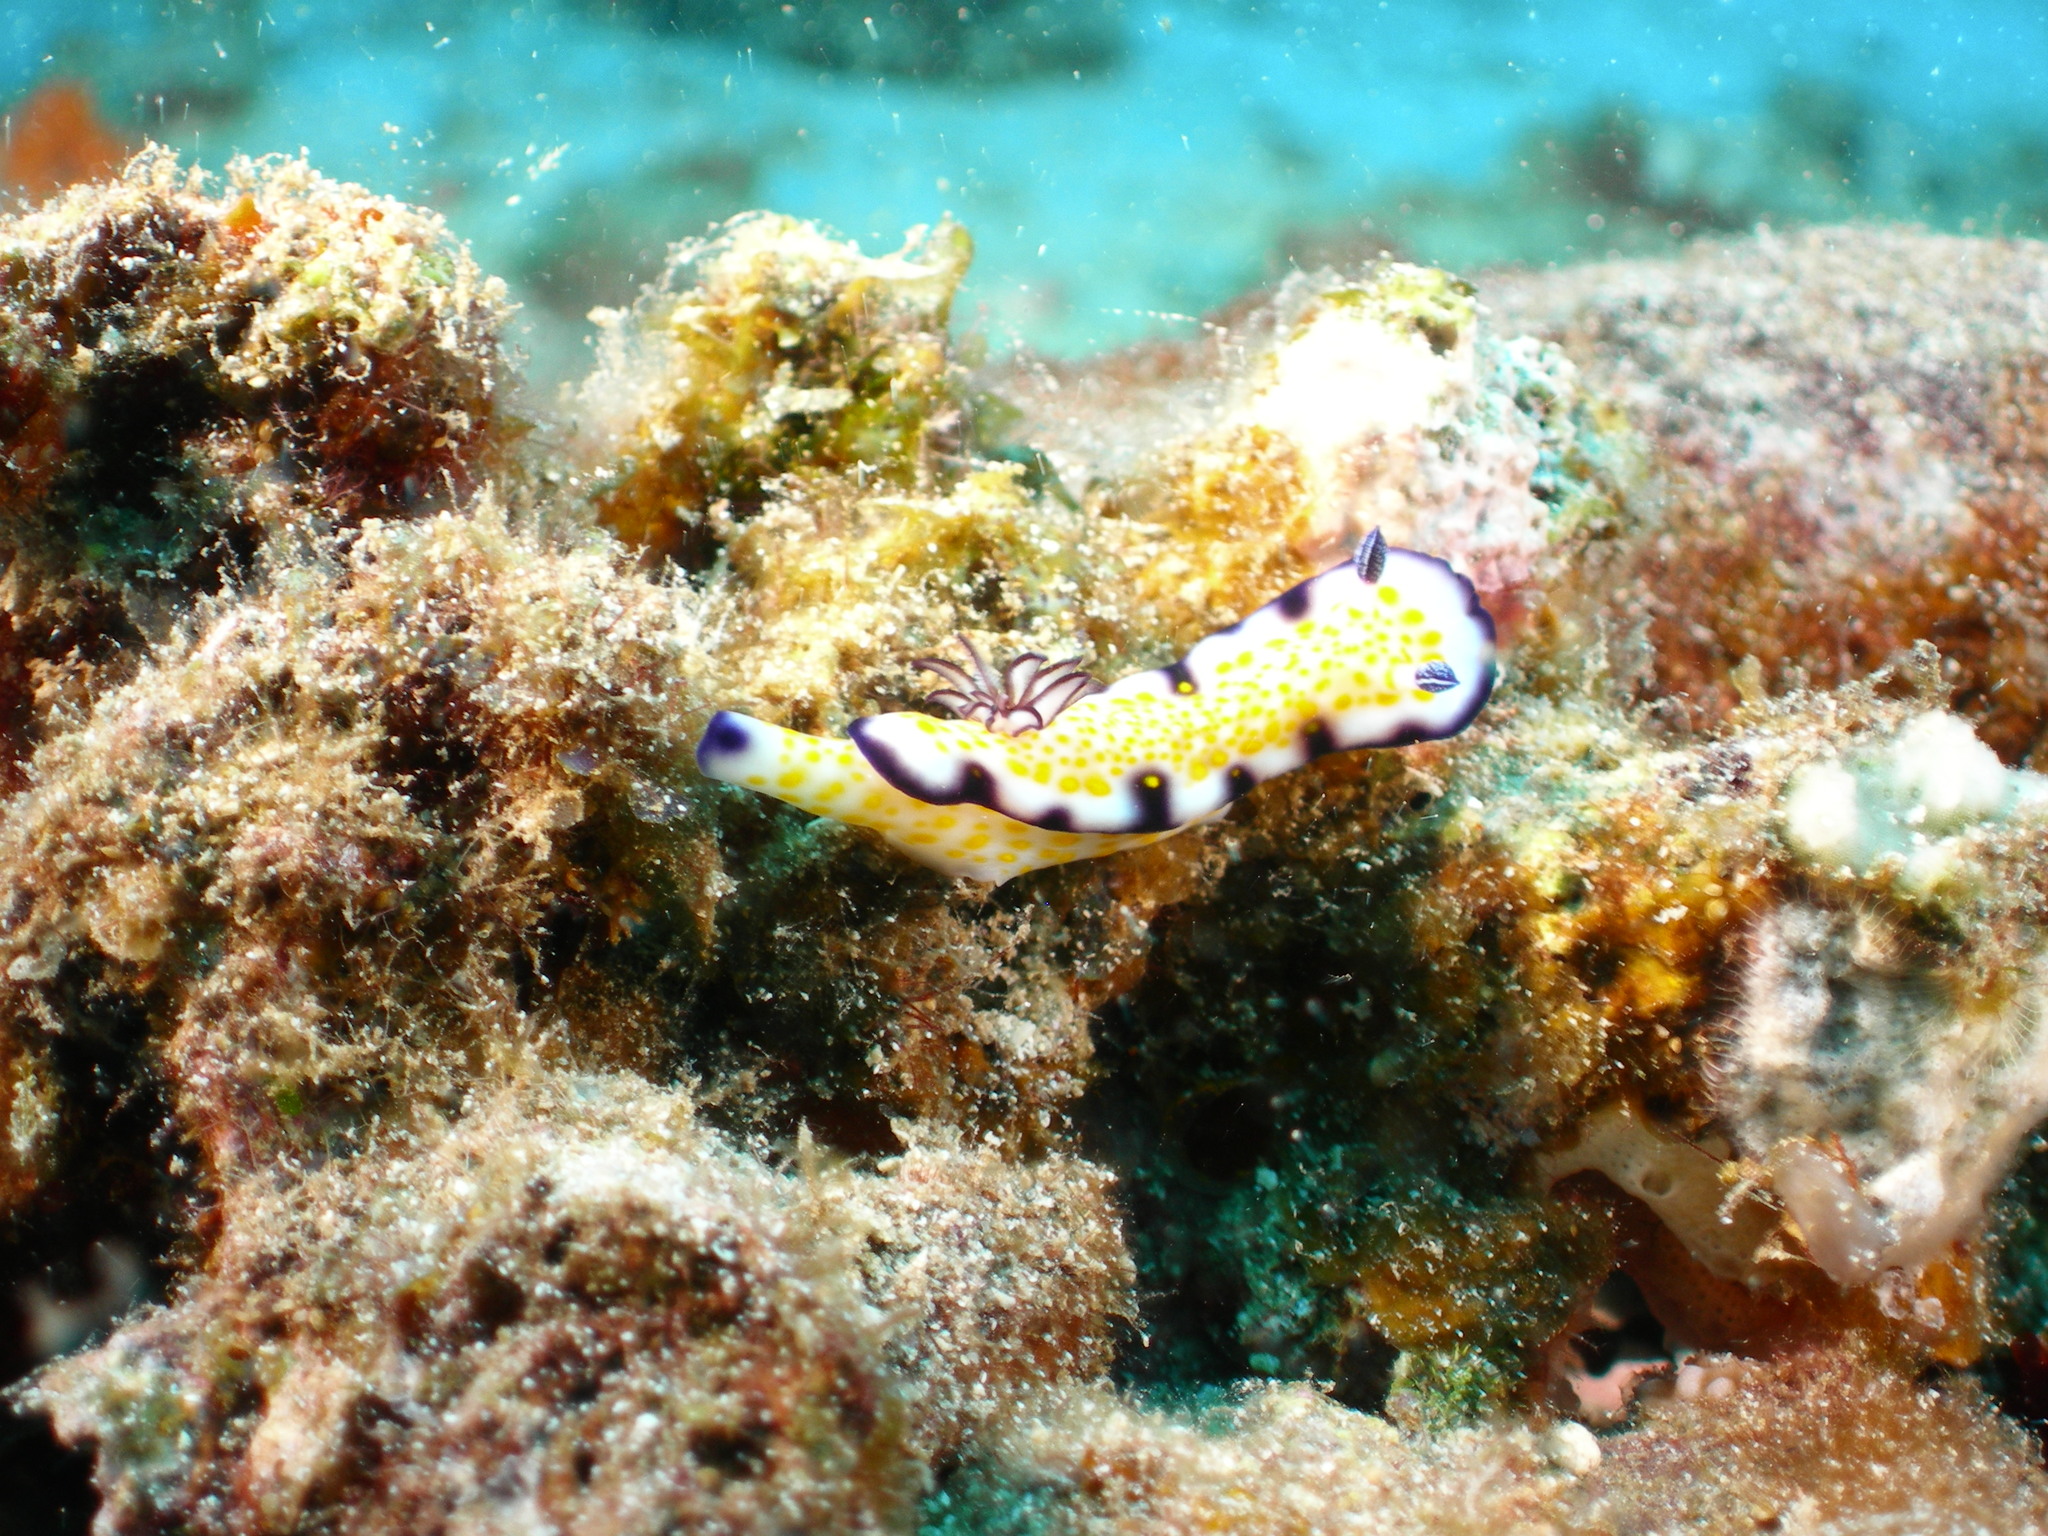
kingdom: Animalia
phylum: Mollusca
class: Gastropoda
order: Nudibranchia
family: Chromodorididae
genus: Hypselodoris
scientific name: Hypselodoris imperialis
